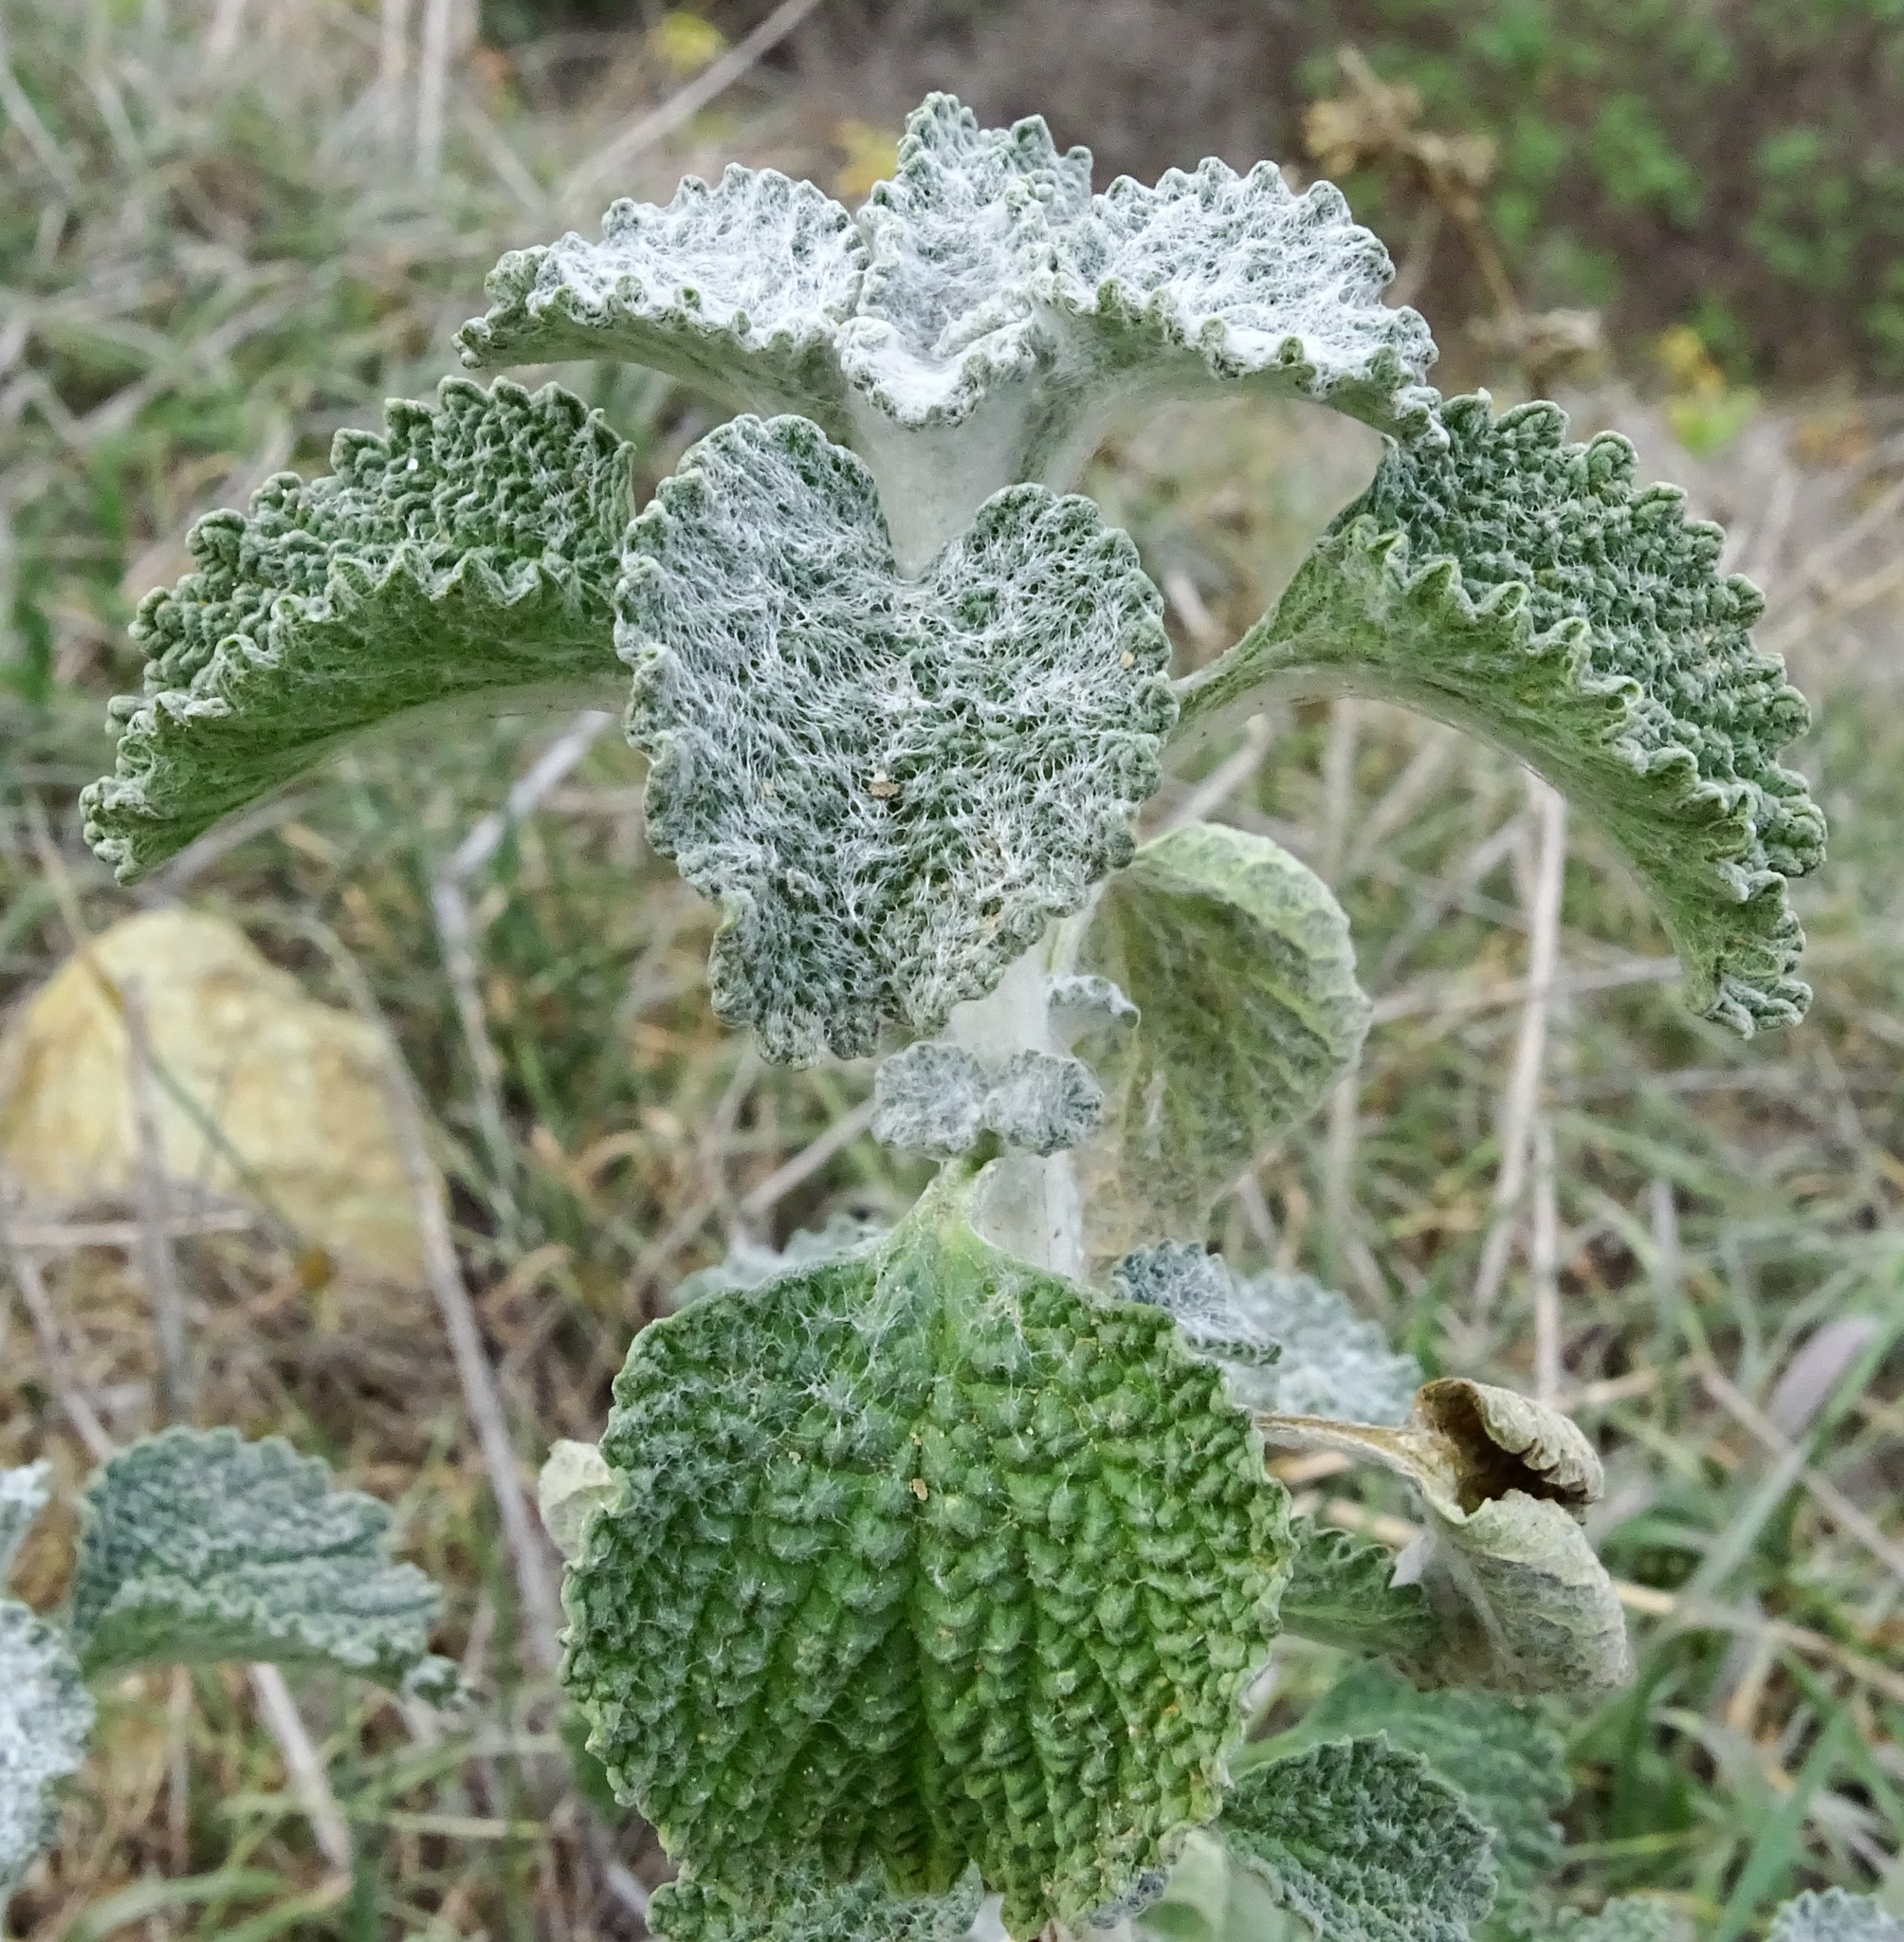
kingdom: Plantae
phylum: Tracheophyta
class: Magnoliopsida
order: Lamiales
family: Lamiaceae
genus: Marrubium
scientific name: Marrubium vulgare
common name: Horehound
